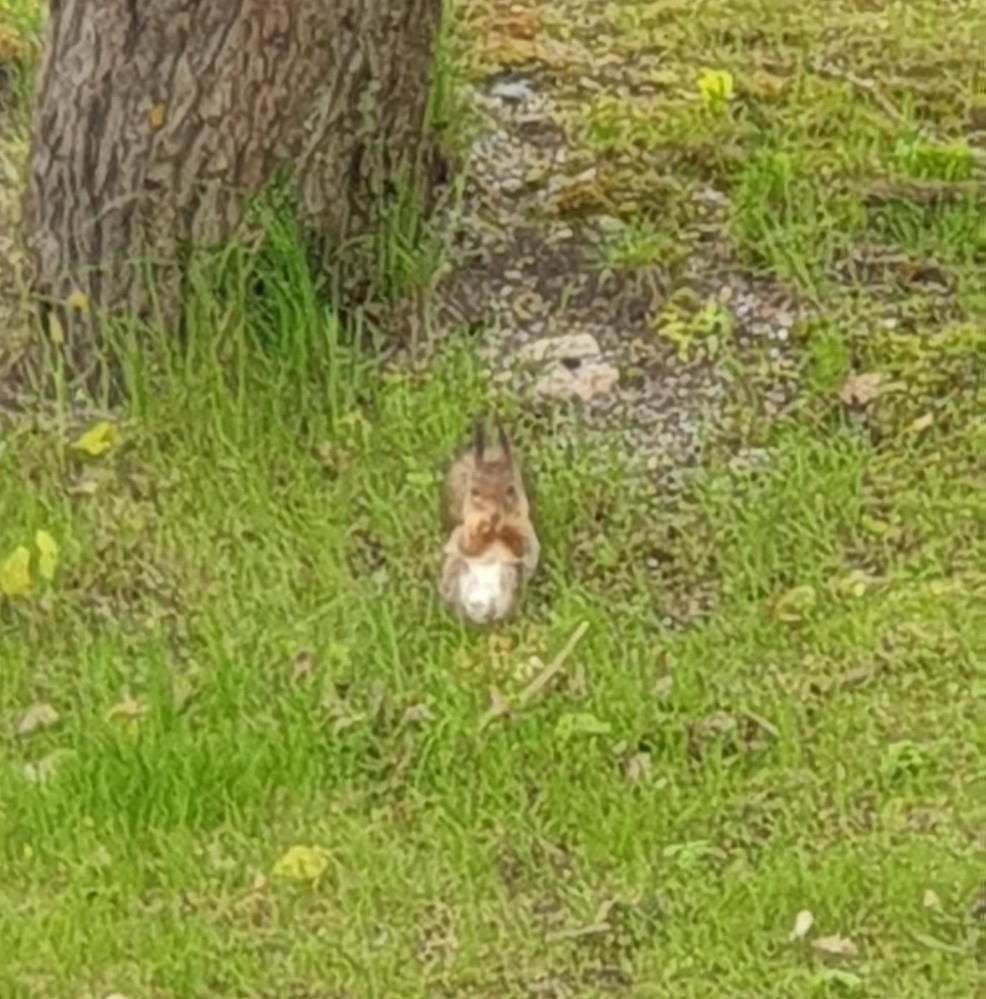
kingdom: Animalia
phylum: Chordata
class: Mammalia
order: Rodentia
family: Sciuridae
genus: Sciurus
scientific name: Sciurus vulgaris
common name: Eurasian red squirrel
